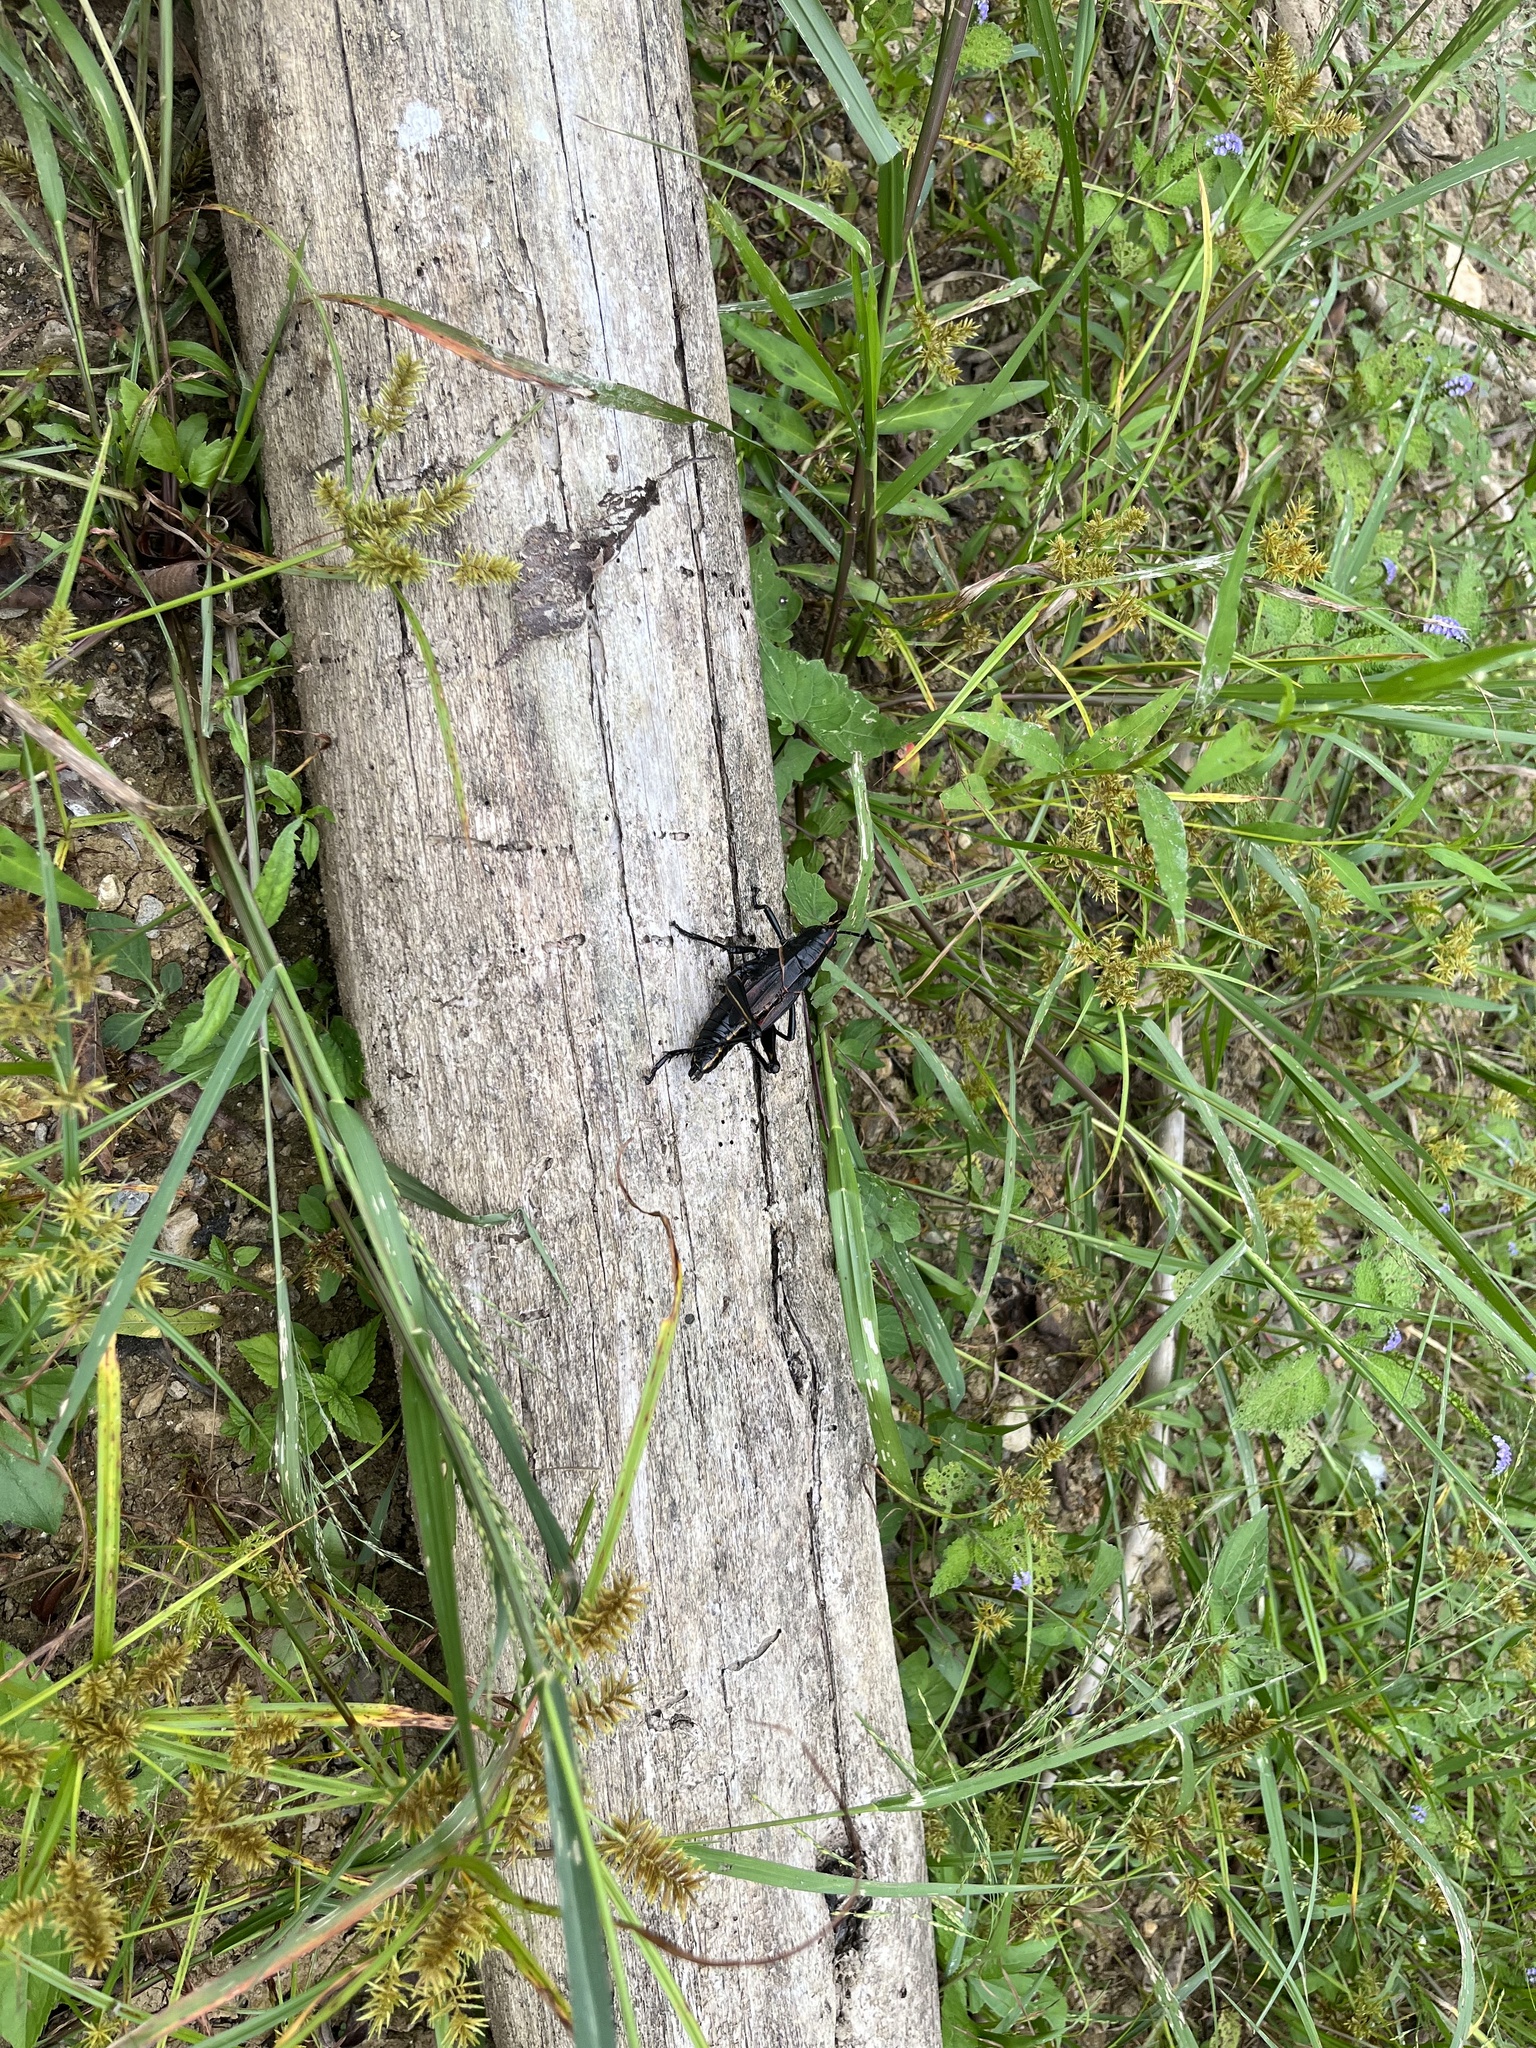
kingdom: Animalia
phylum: Arthropoda
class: Insecta
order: Orthoptera
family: Romaleidae
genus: Romalea
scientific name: Romalea microptera
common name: Eastern lubber grasshopper
